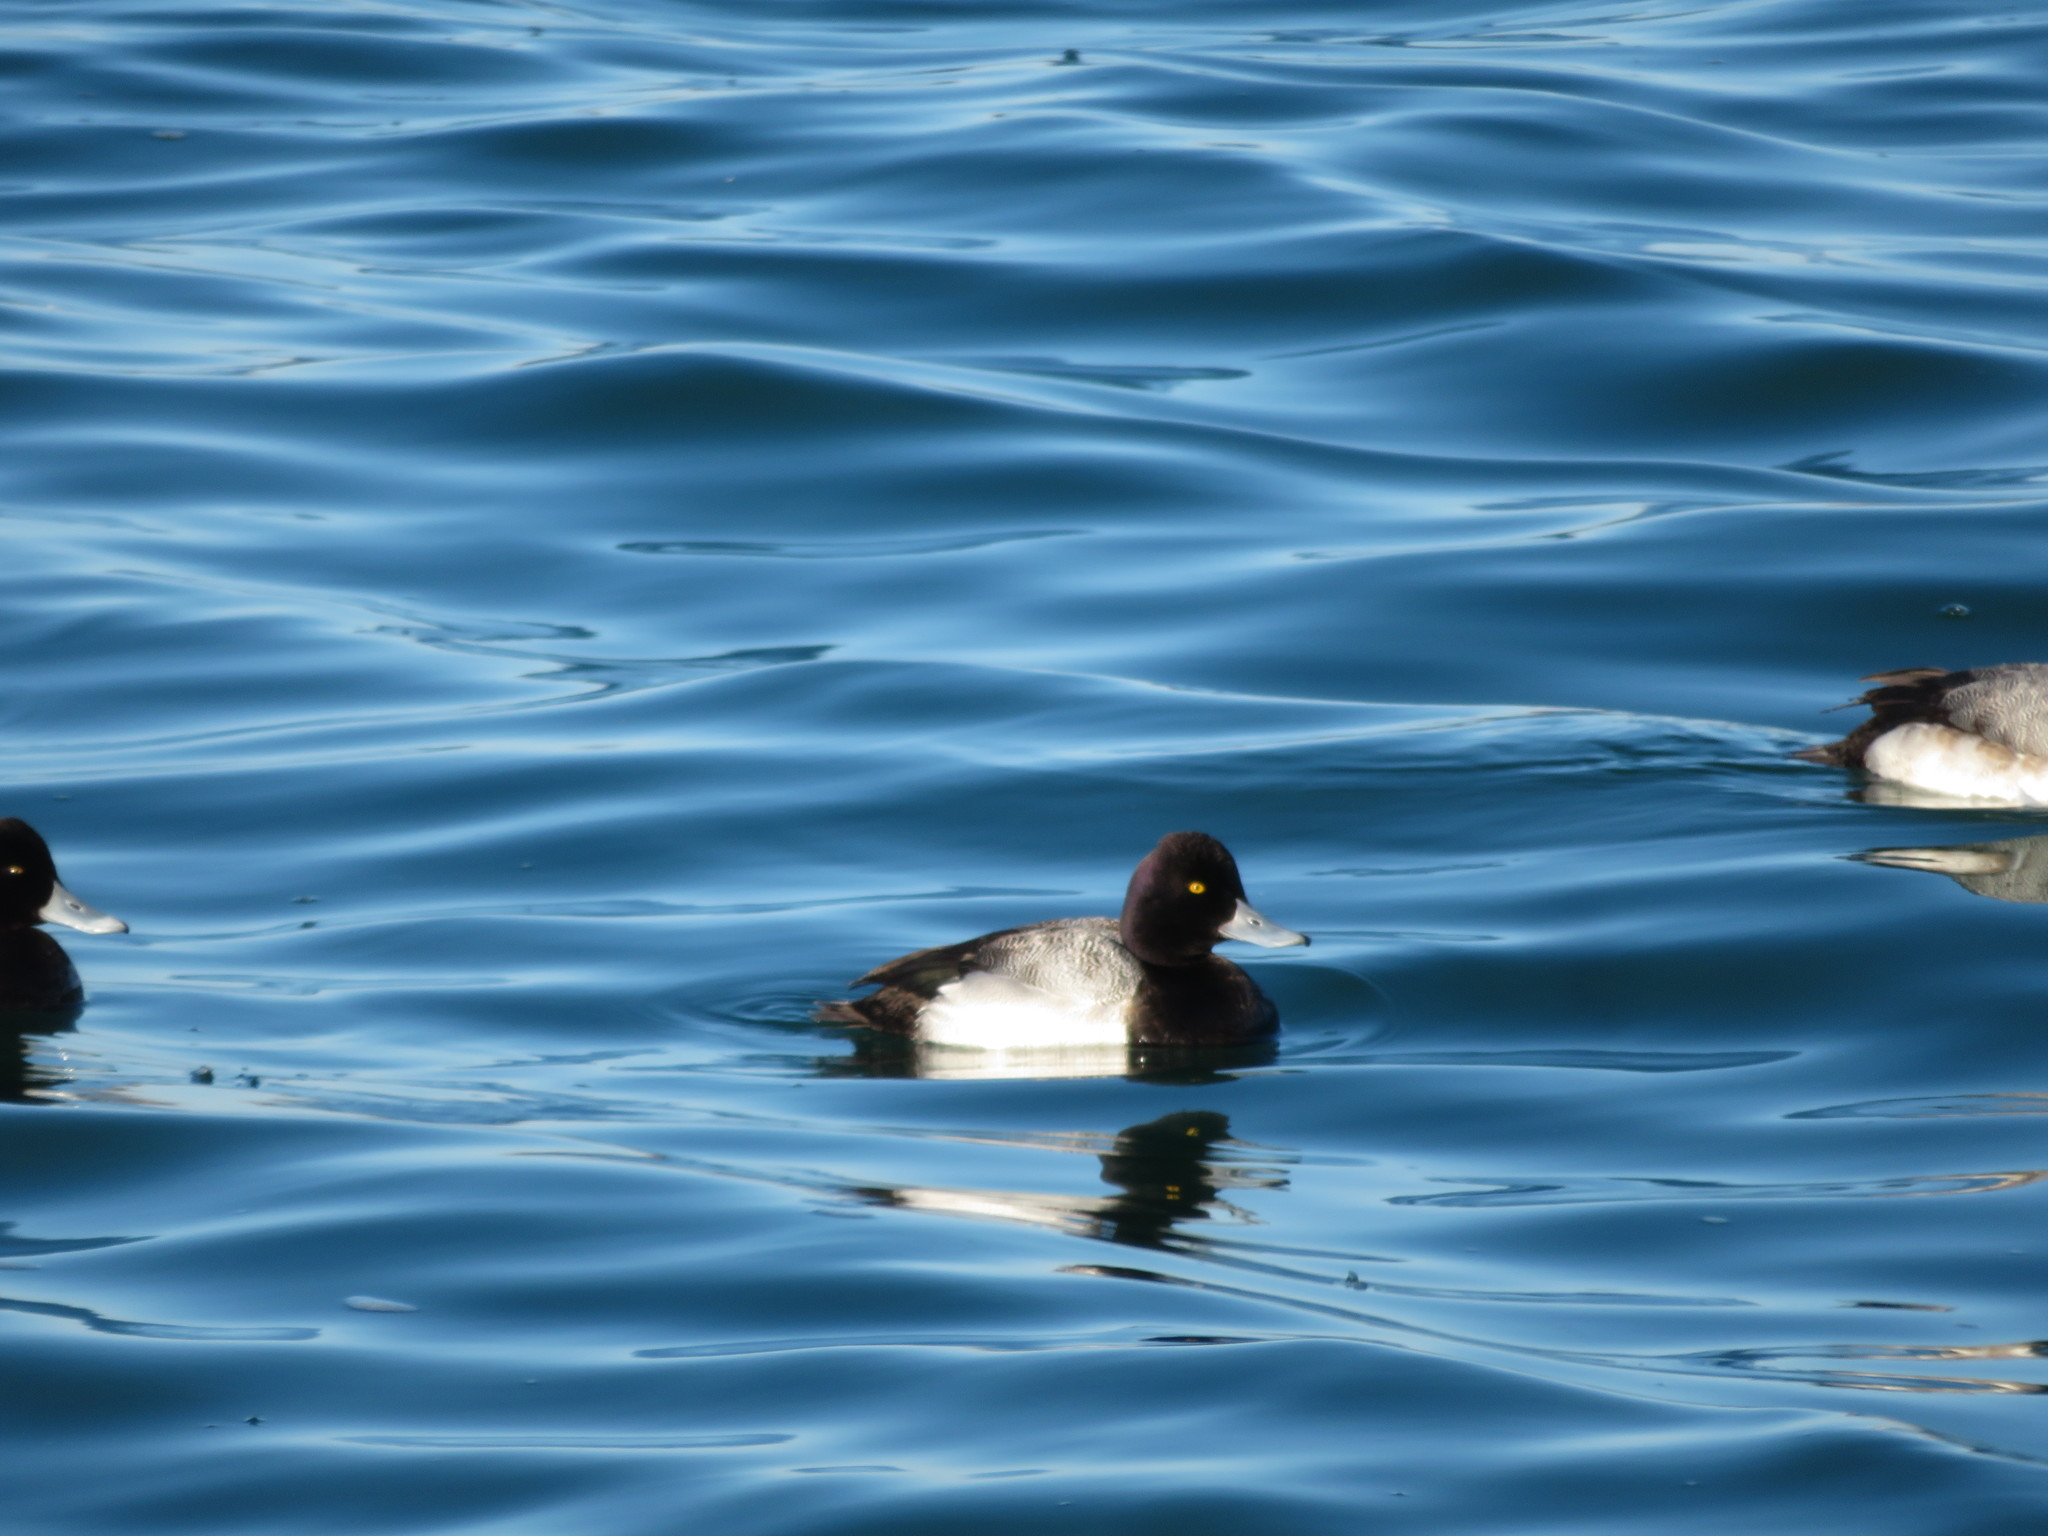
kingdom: Animalia
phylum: Chordata
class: Aves
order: Anseriformes
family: Anatidae
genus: Aythya
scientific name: Aythya affinis
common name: Lesser scaup
